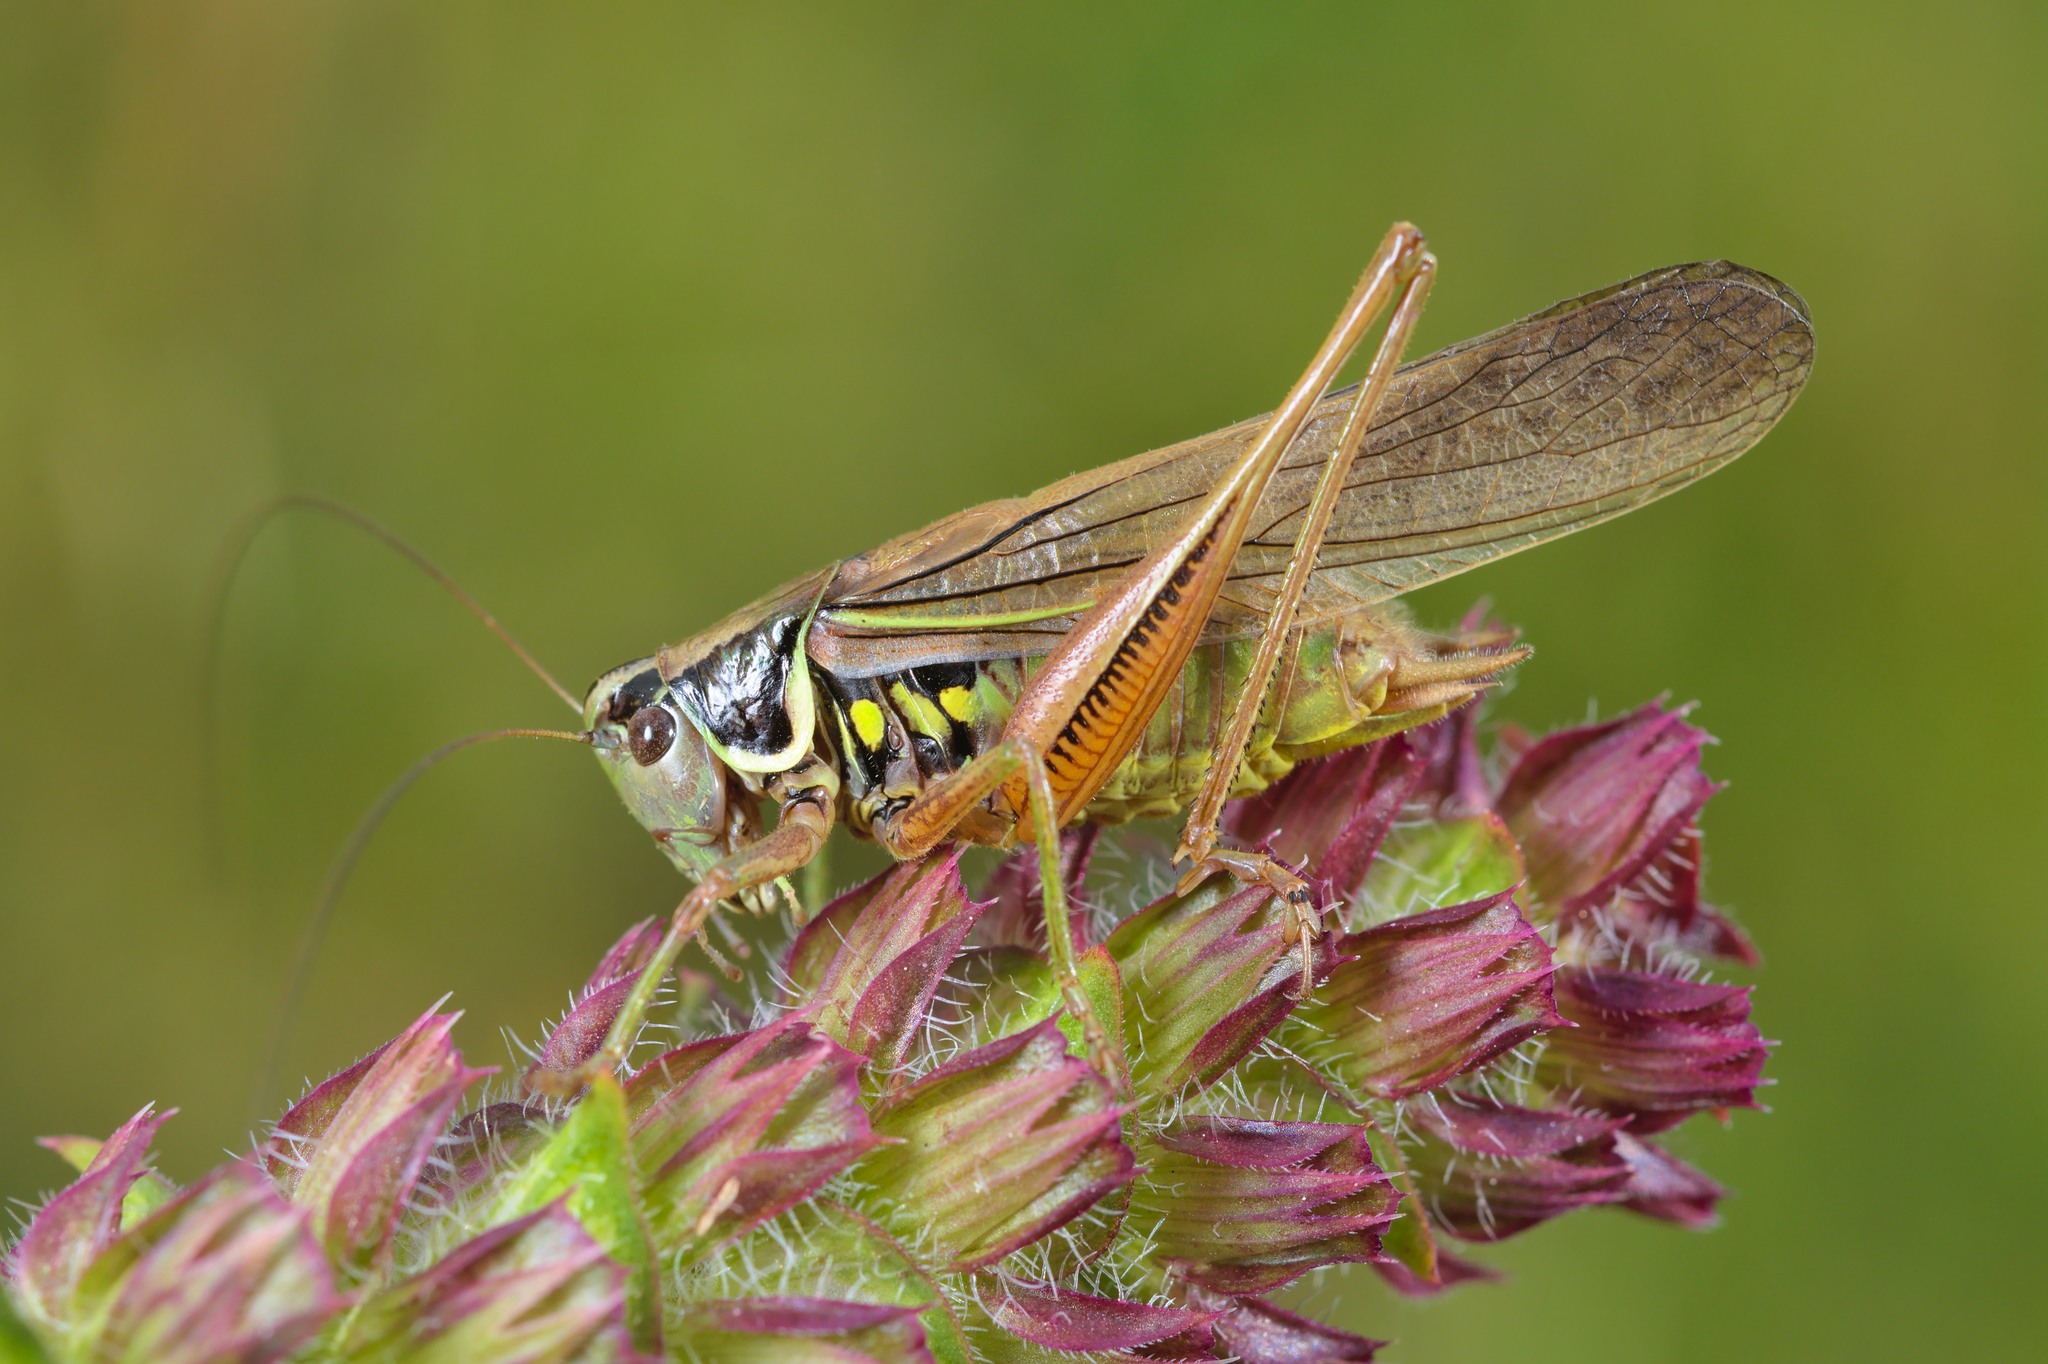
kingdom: Animalia
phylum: Arthropoda
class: Insecta
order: Orthoptera
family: Tettigoniidae
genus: Roeseliana
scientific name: Roeseliana roeselii
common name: Roesel's bush cricket
